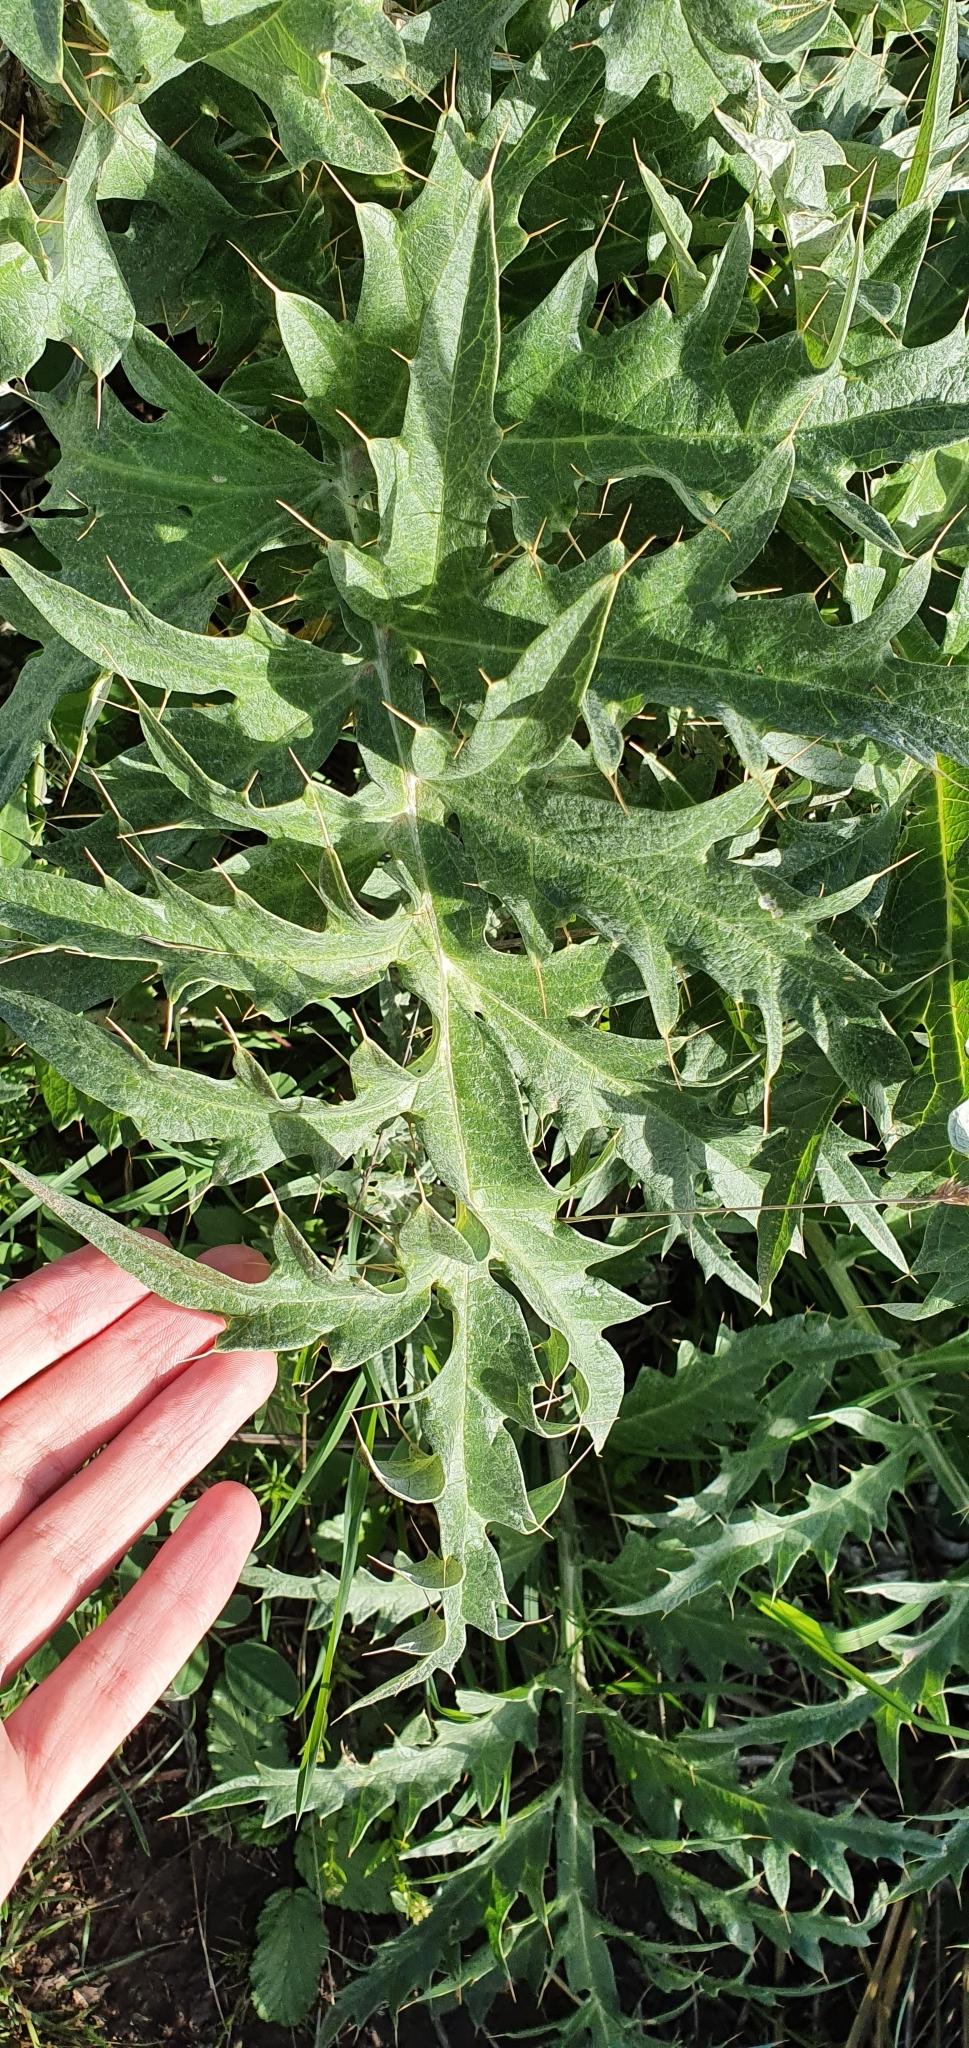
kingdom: Plantae
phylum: Tracheophyta
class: Magnoliopsida
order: Asterales
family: Asteraceae
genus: Cynara
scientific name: Cynara cardunculus
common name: Globe artichoke
